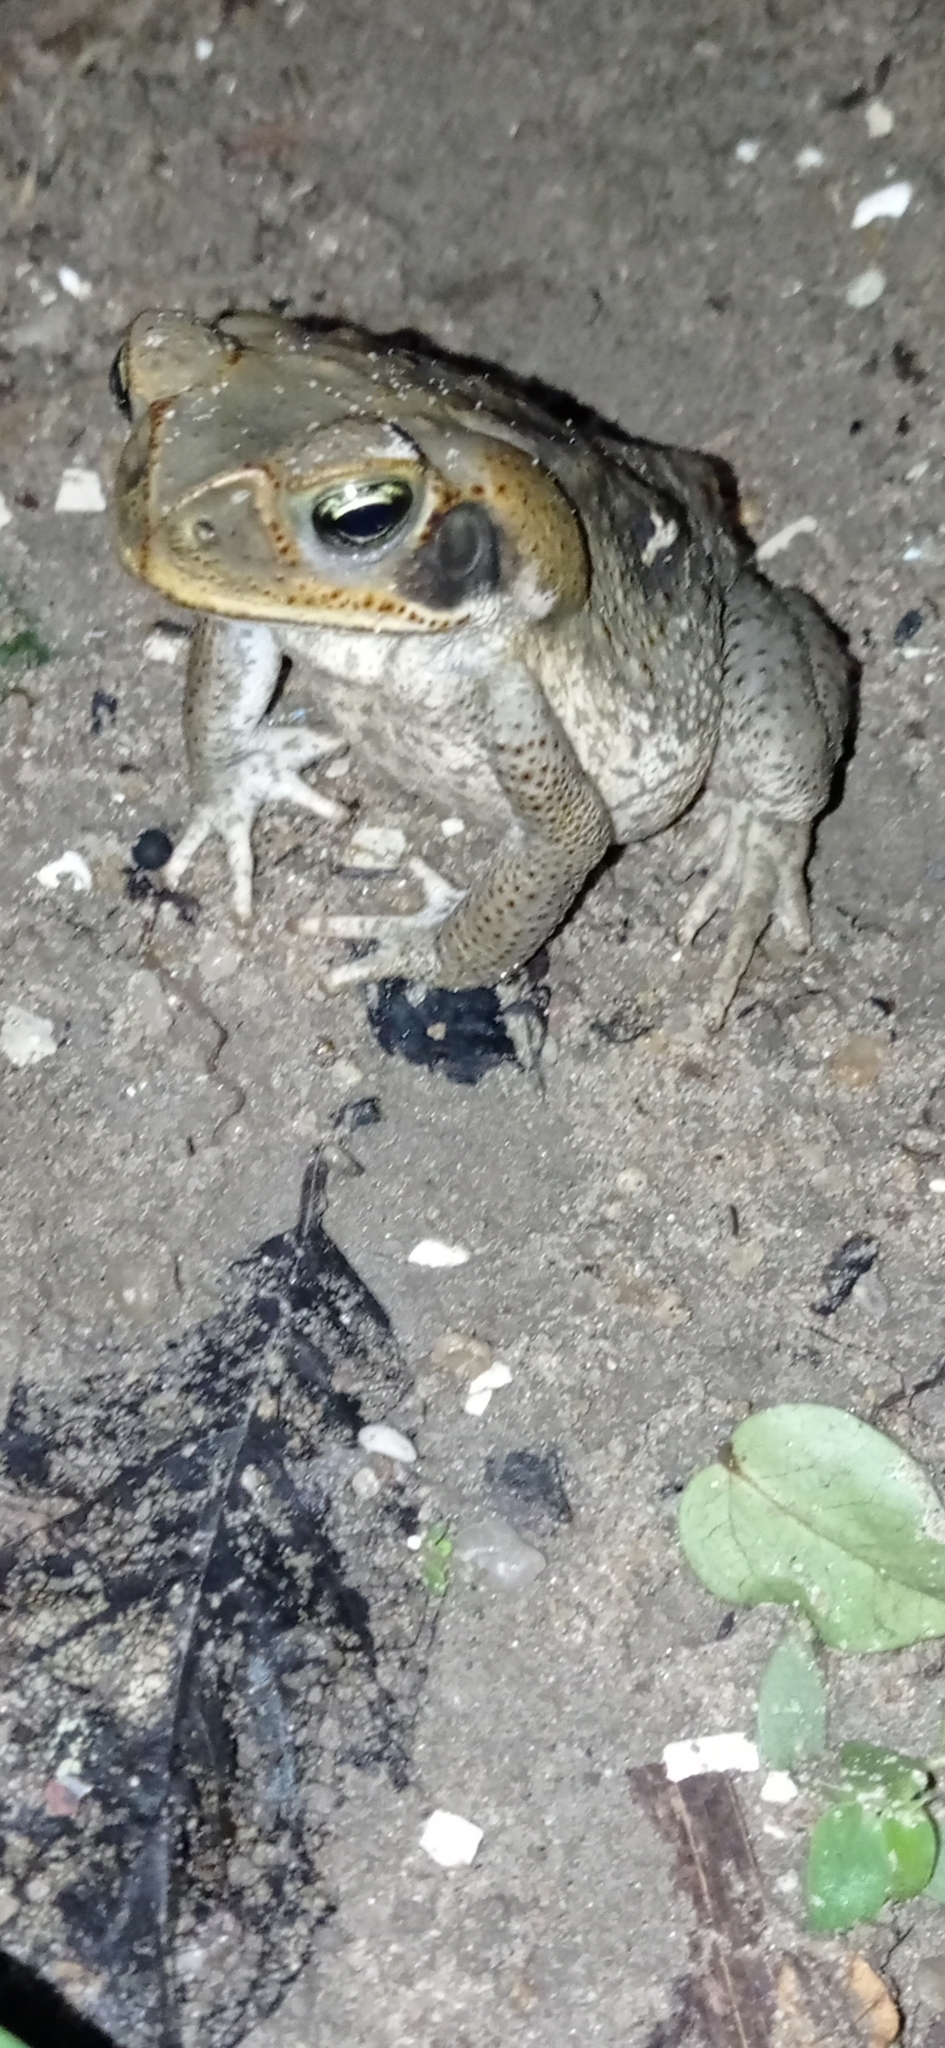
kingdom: Animalia
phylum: Chordata
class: Amphibia
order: Anura
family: Bufonidae
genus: Rhinella
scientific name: Rhinella diptycha
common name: Cope's toad
